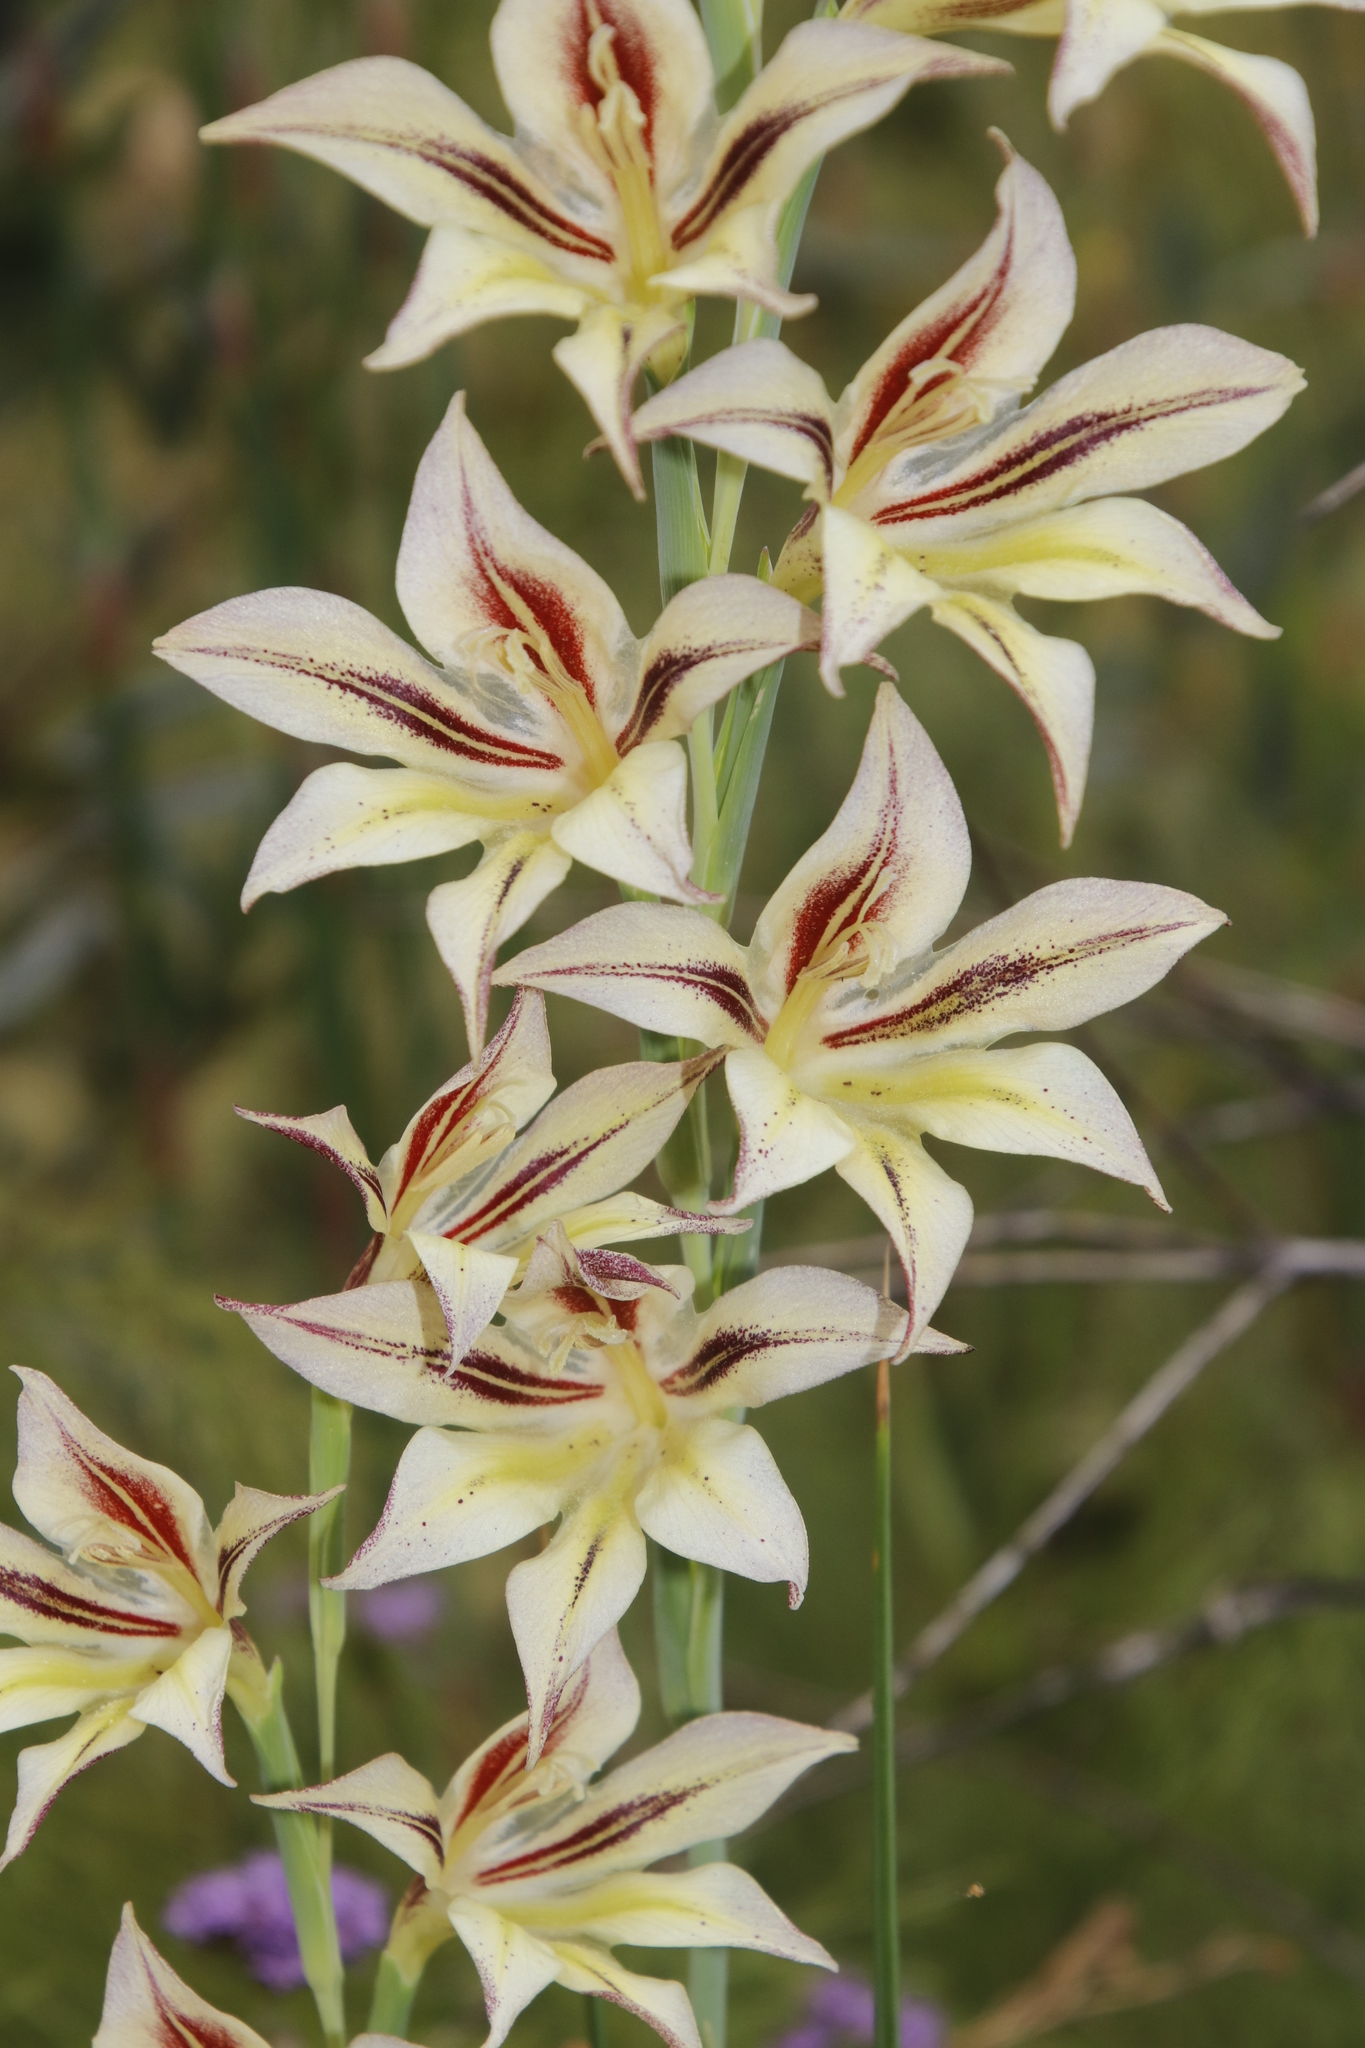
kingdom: Plantae
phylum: Tracheophyta
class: Liliopsida
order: Asparagales
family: Iridaceae
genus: Gladiolus
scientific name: Gladiolus tristis
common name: Ever-flowering gladiolus
